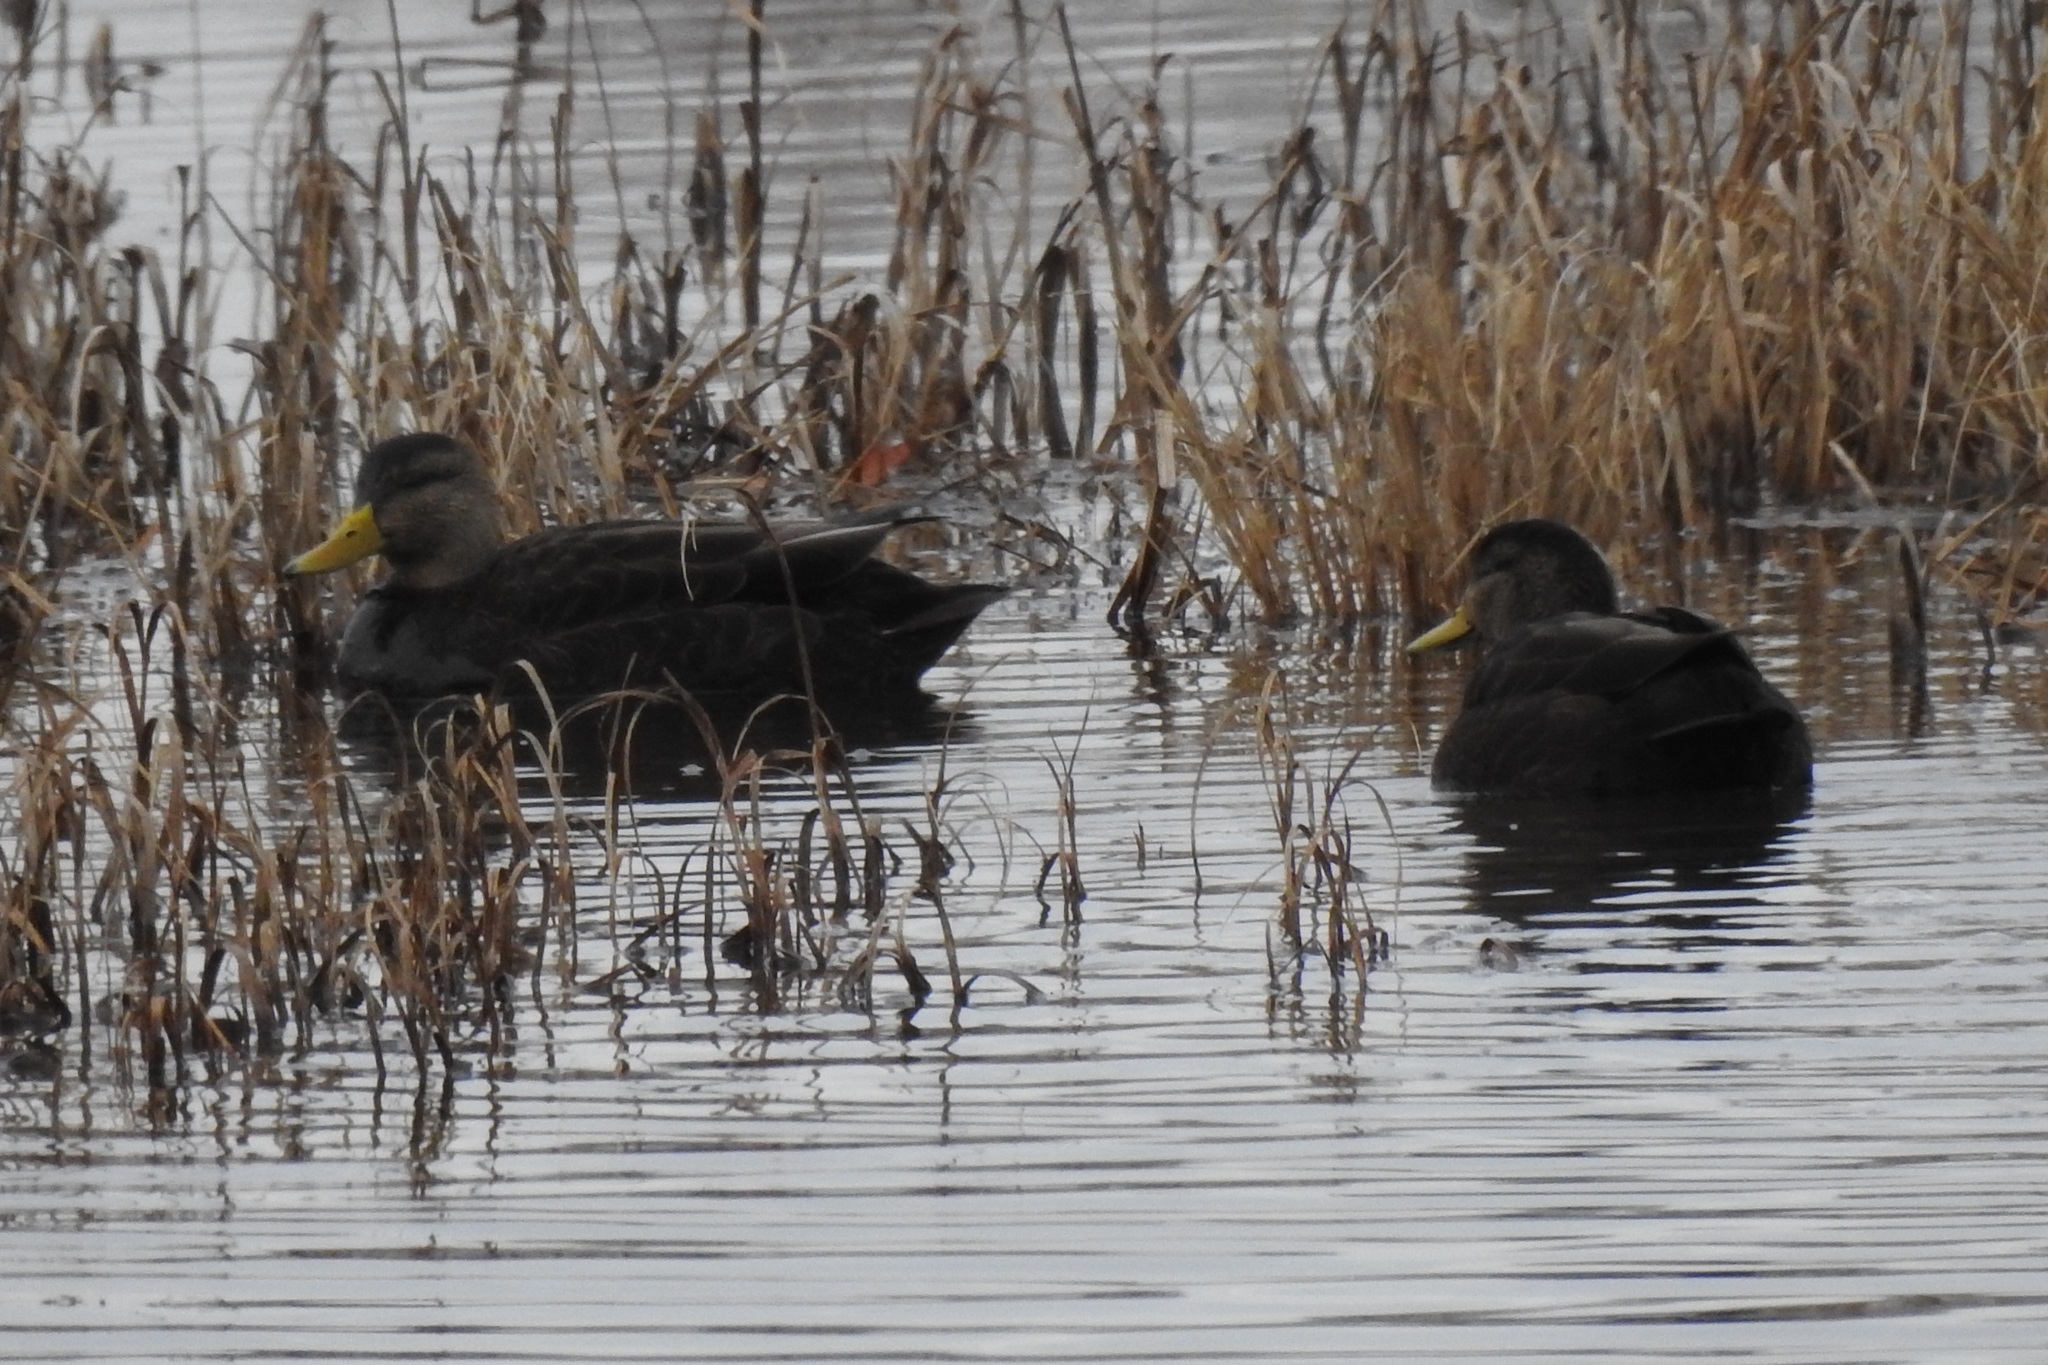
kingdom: Animalia
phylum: Chordata
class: Aves
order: Anseriformes
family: Anatidae
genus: Anas
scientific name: Anas rubripes
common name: American black duck
